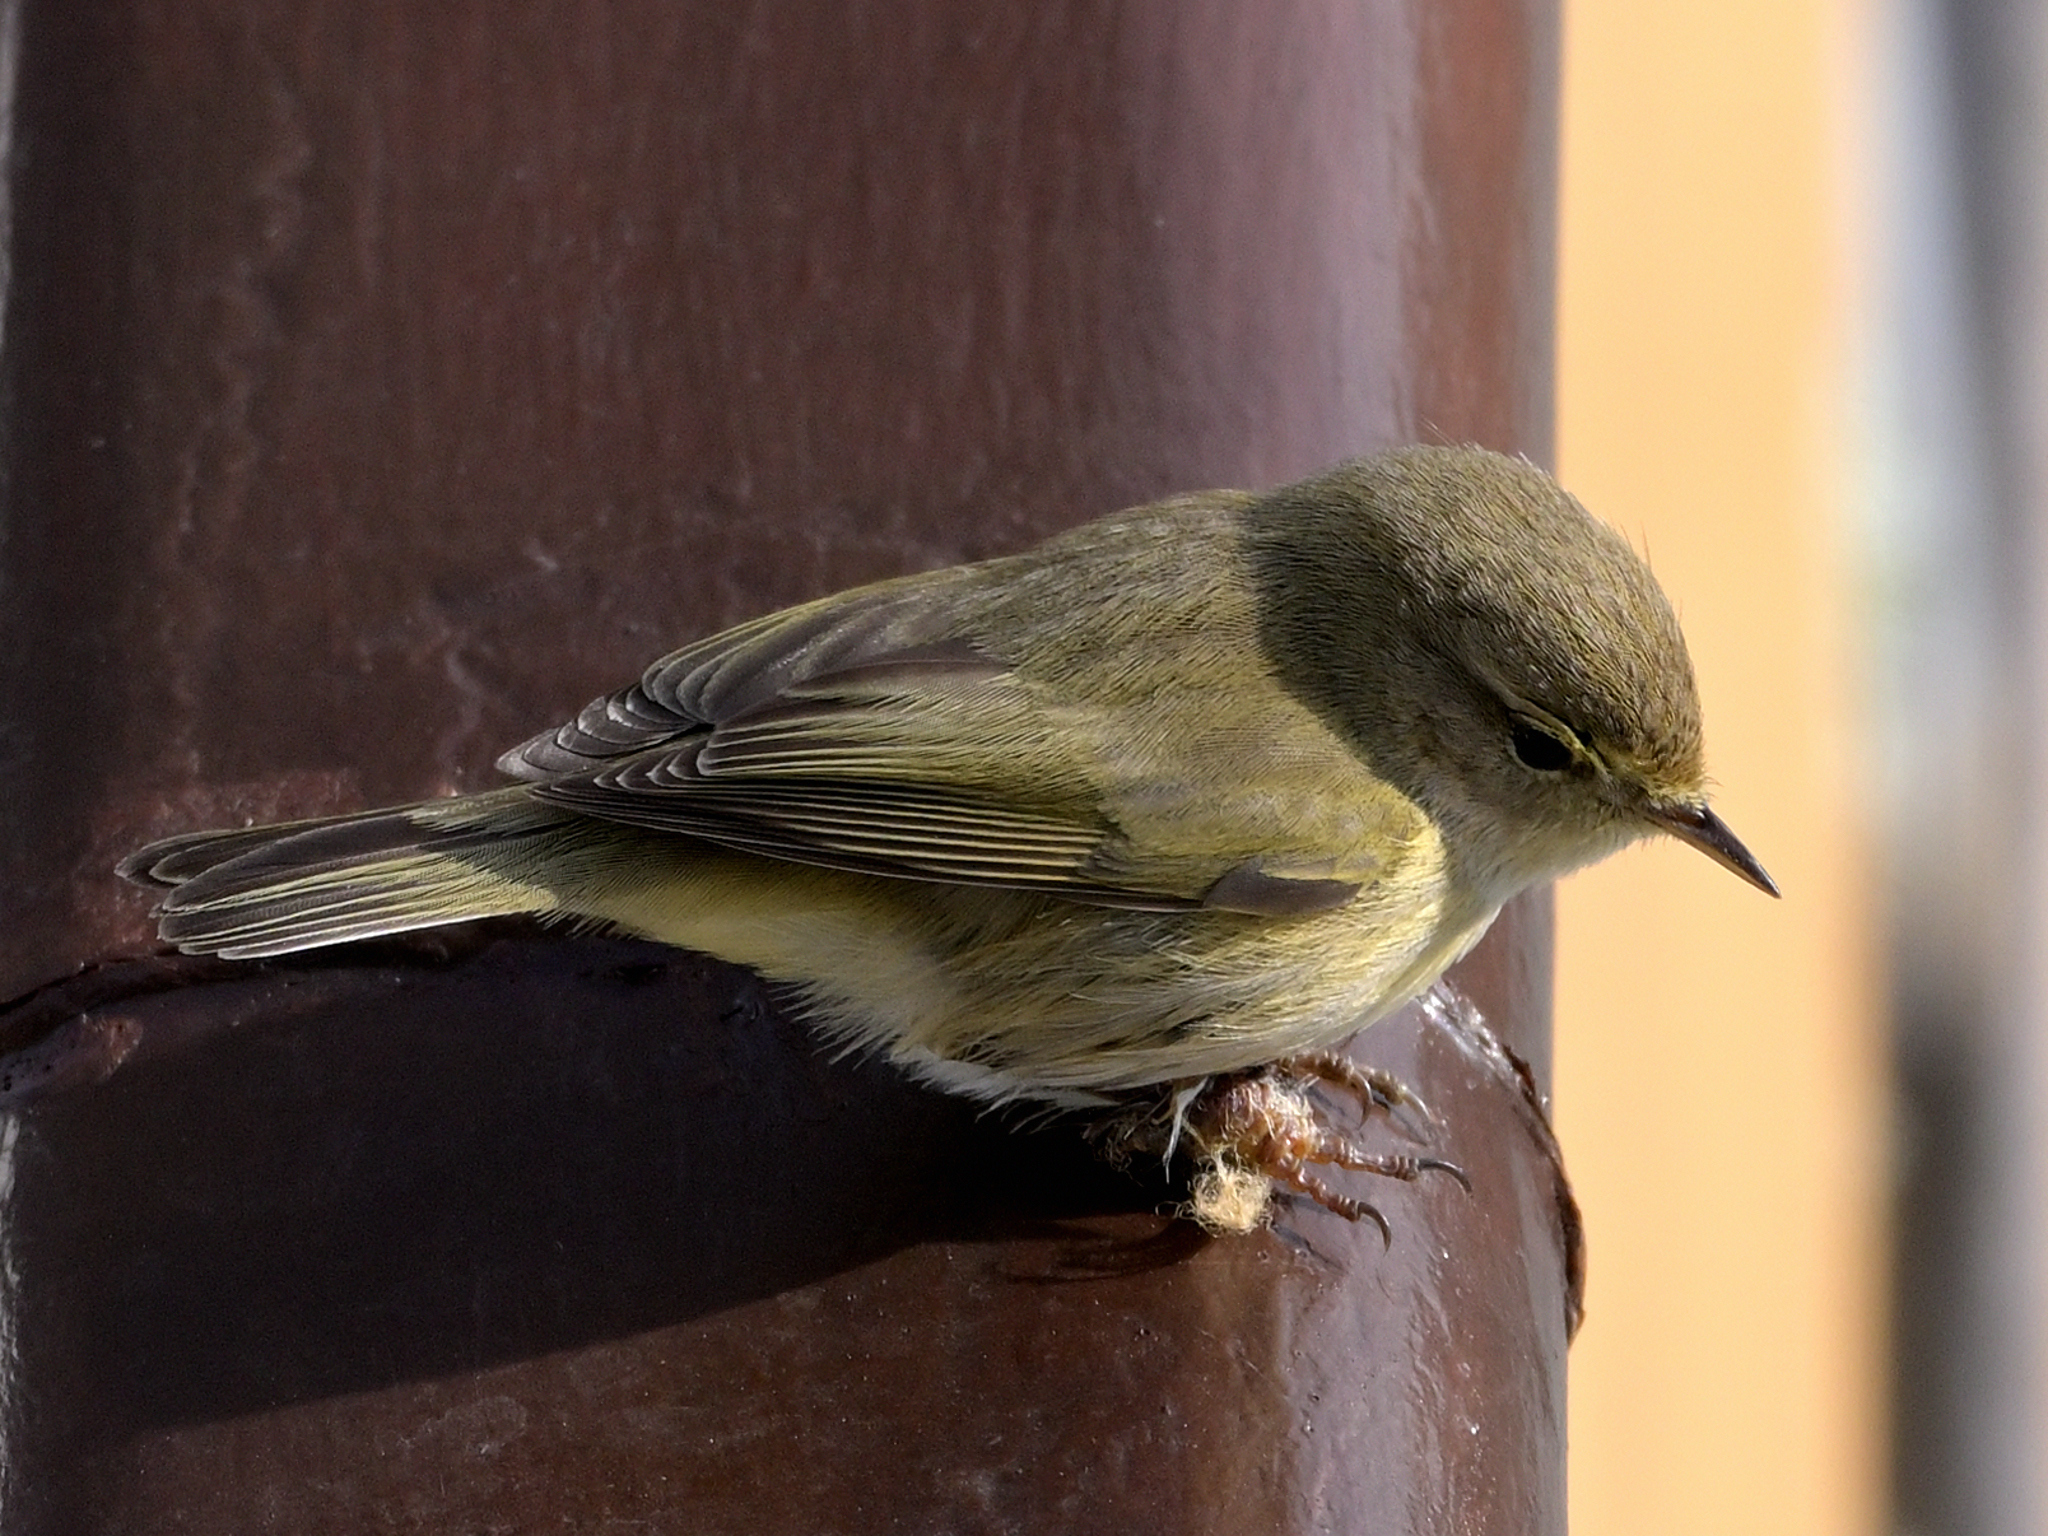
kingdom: Animalia
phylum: Chordata
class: Aves
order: Passeriformes
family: Phylloscopidae
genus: Phylloscopus
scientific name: Phylloscopus collybita
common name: Common chiffchaff
